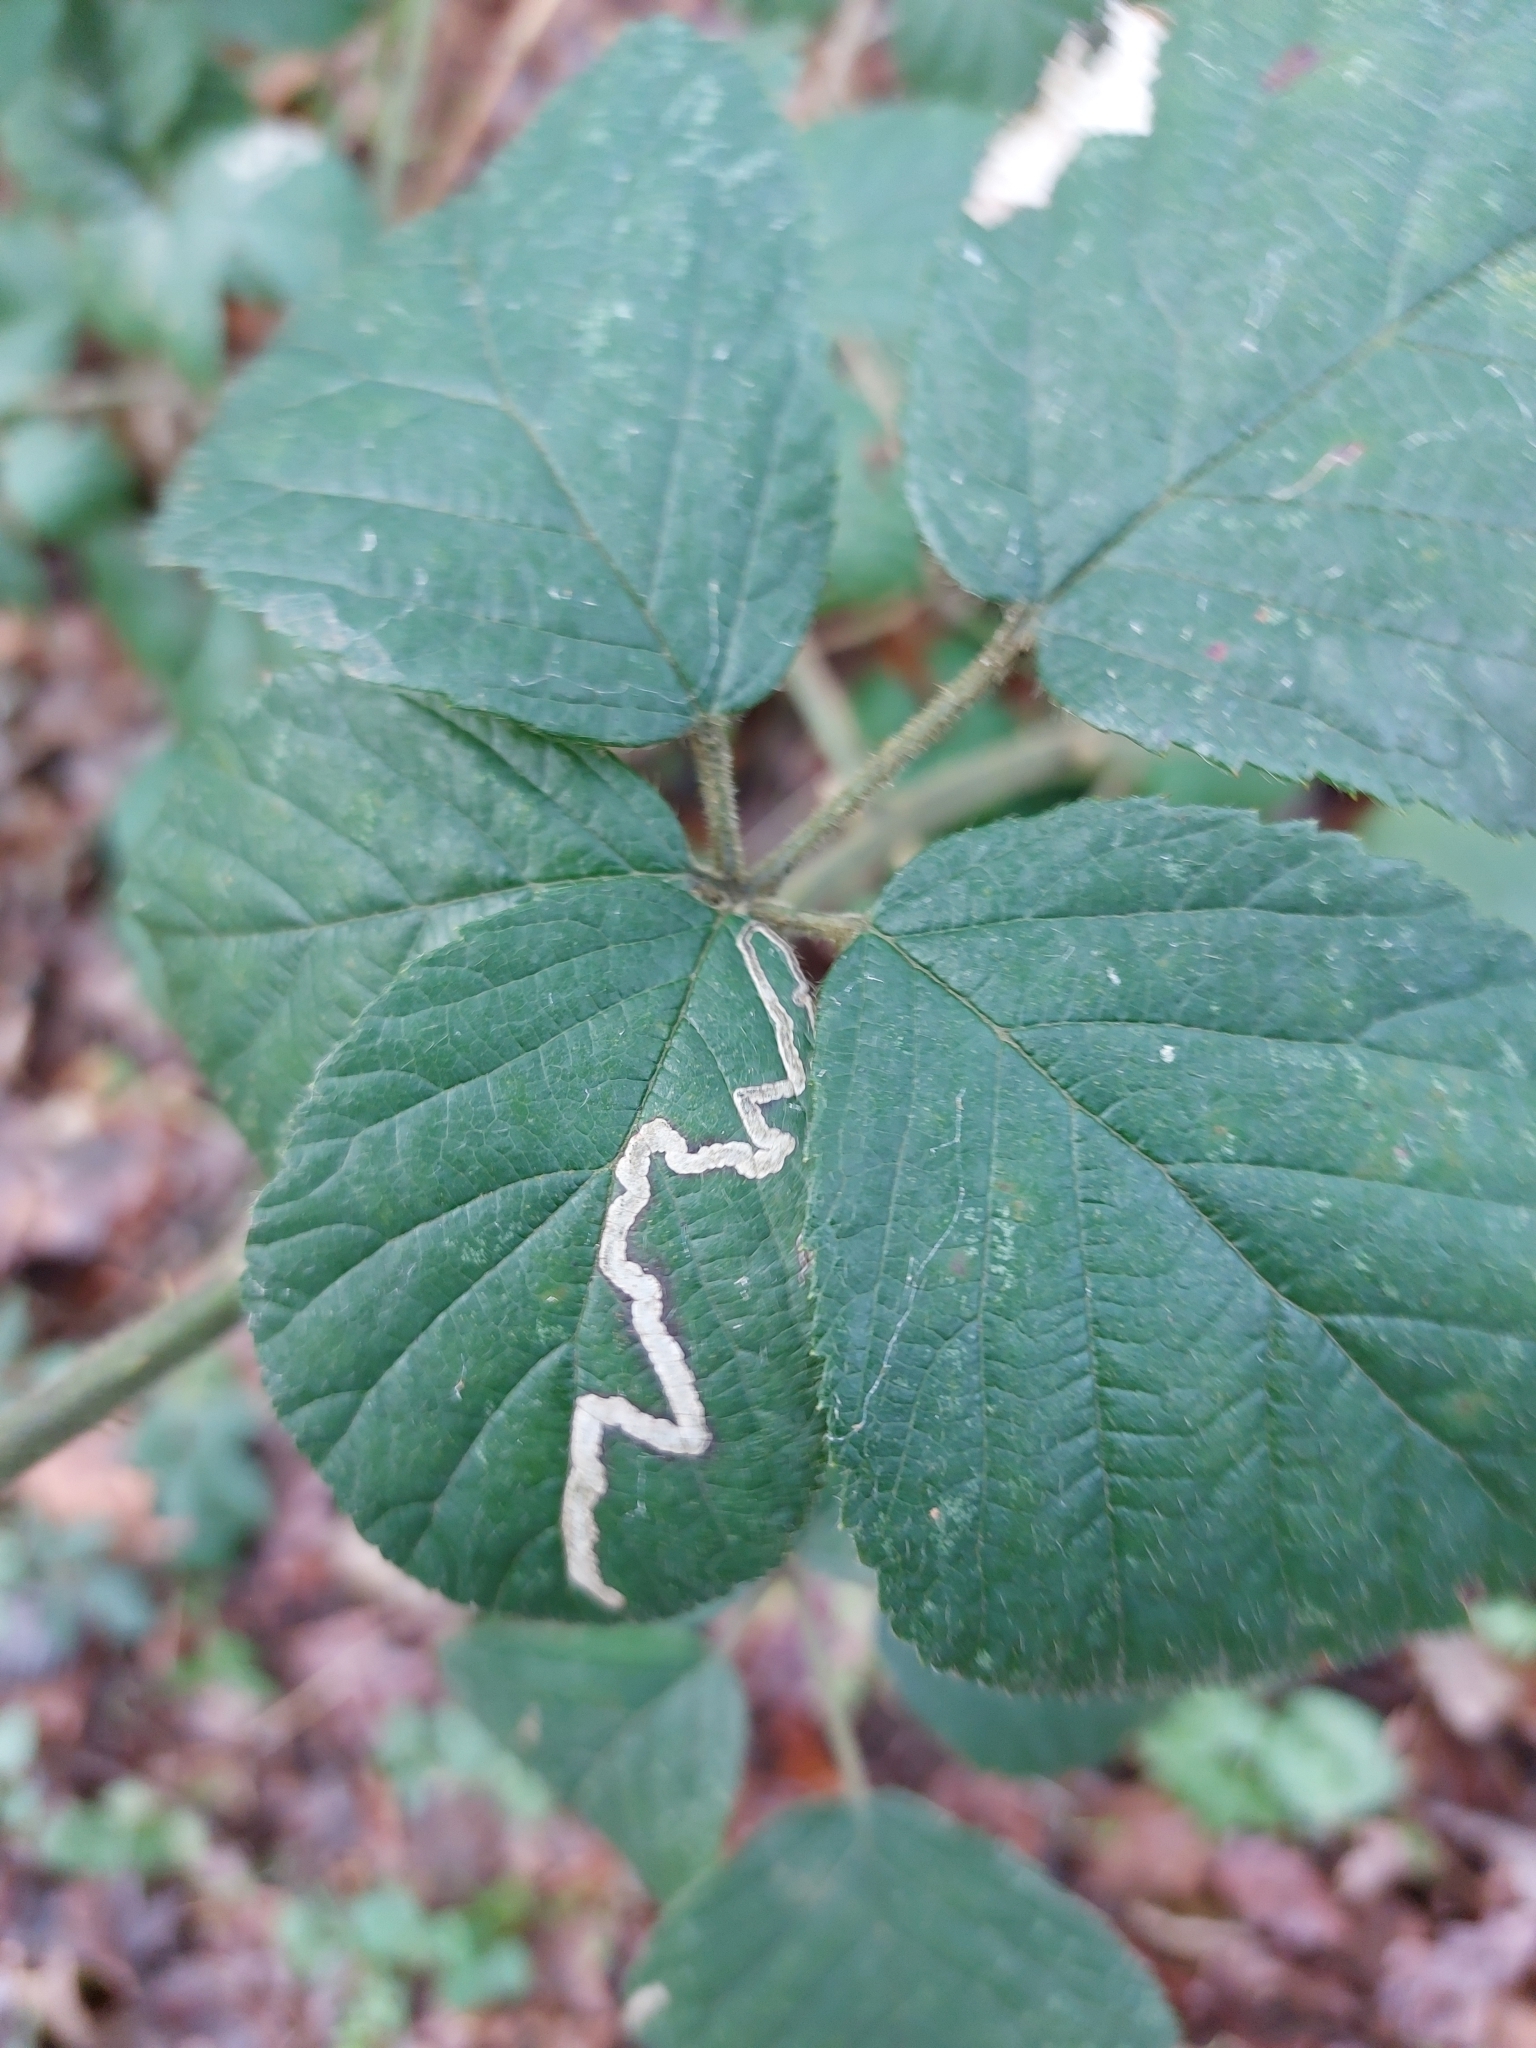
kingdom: Animalia
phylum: Arthropoda
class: Insecta
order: Lepidoptera
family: Nepticulidae
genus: Stigmella
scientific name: Stigmella aurella
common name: Golden pigmy
